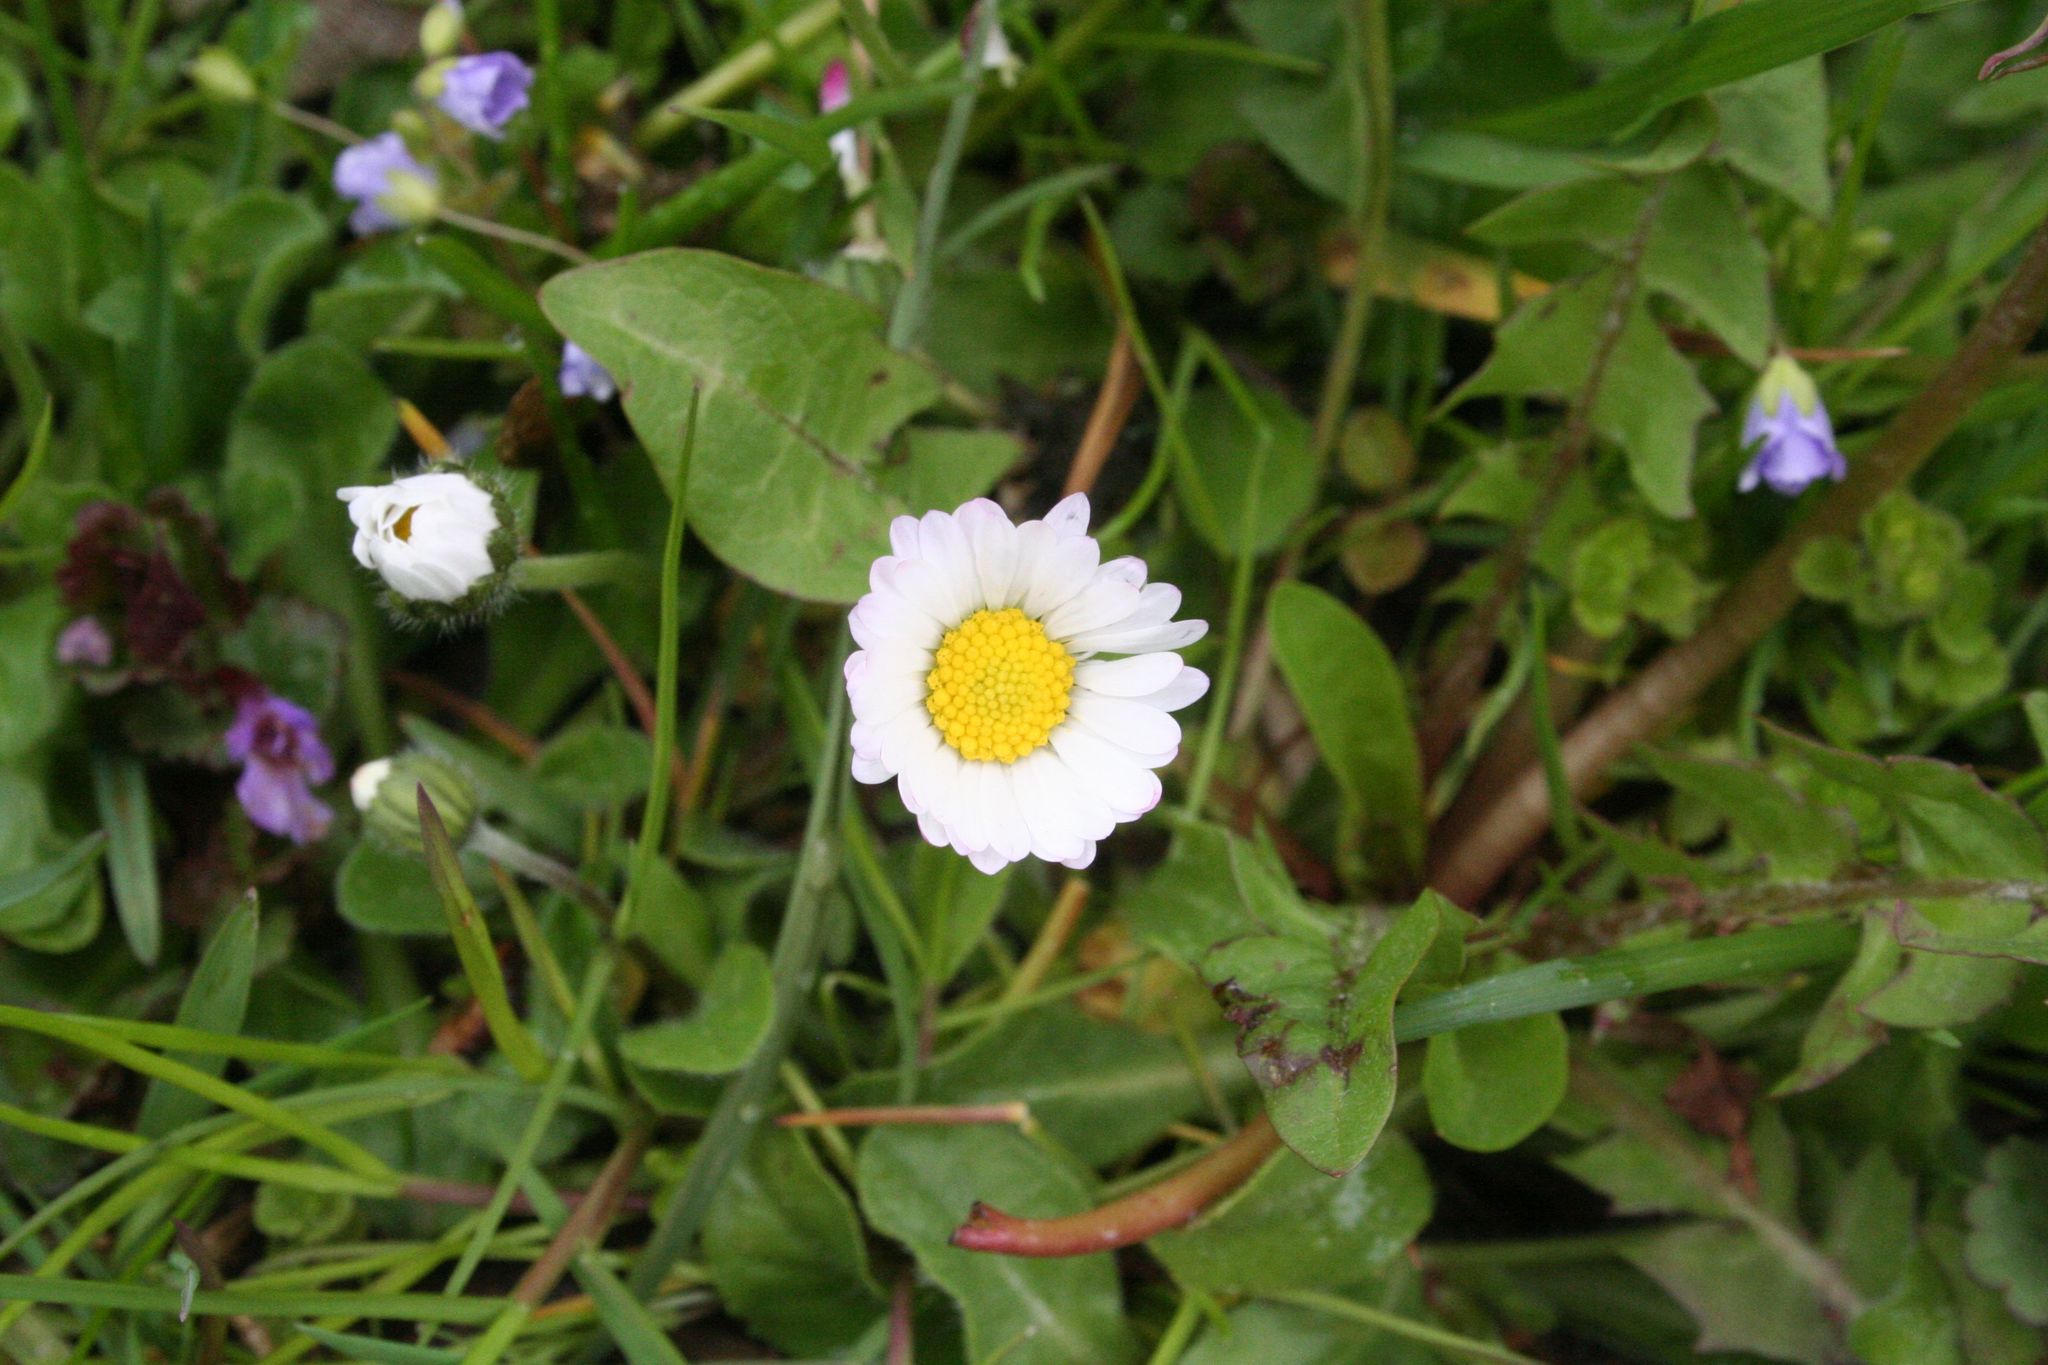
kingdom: Plantae
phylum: Tracheophyta
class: Magnoliopsida
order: Asterales
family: Asteraceae
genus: Bellis
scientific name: Bellis perennis
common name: Lawndaisy
